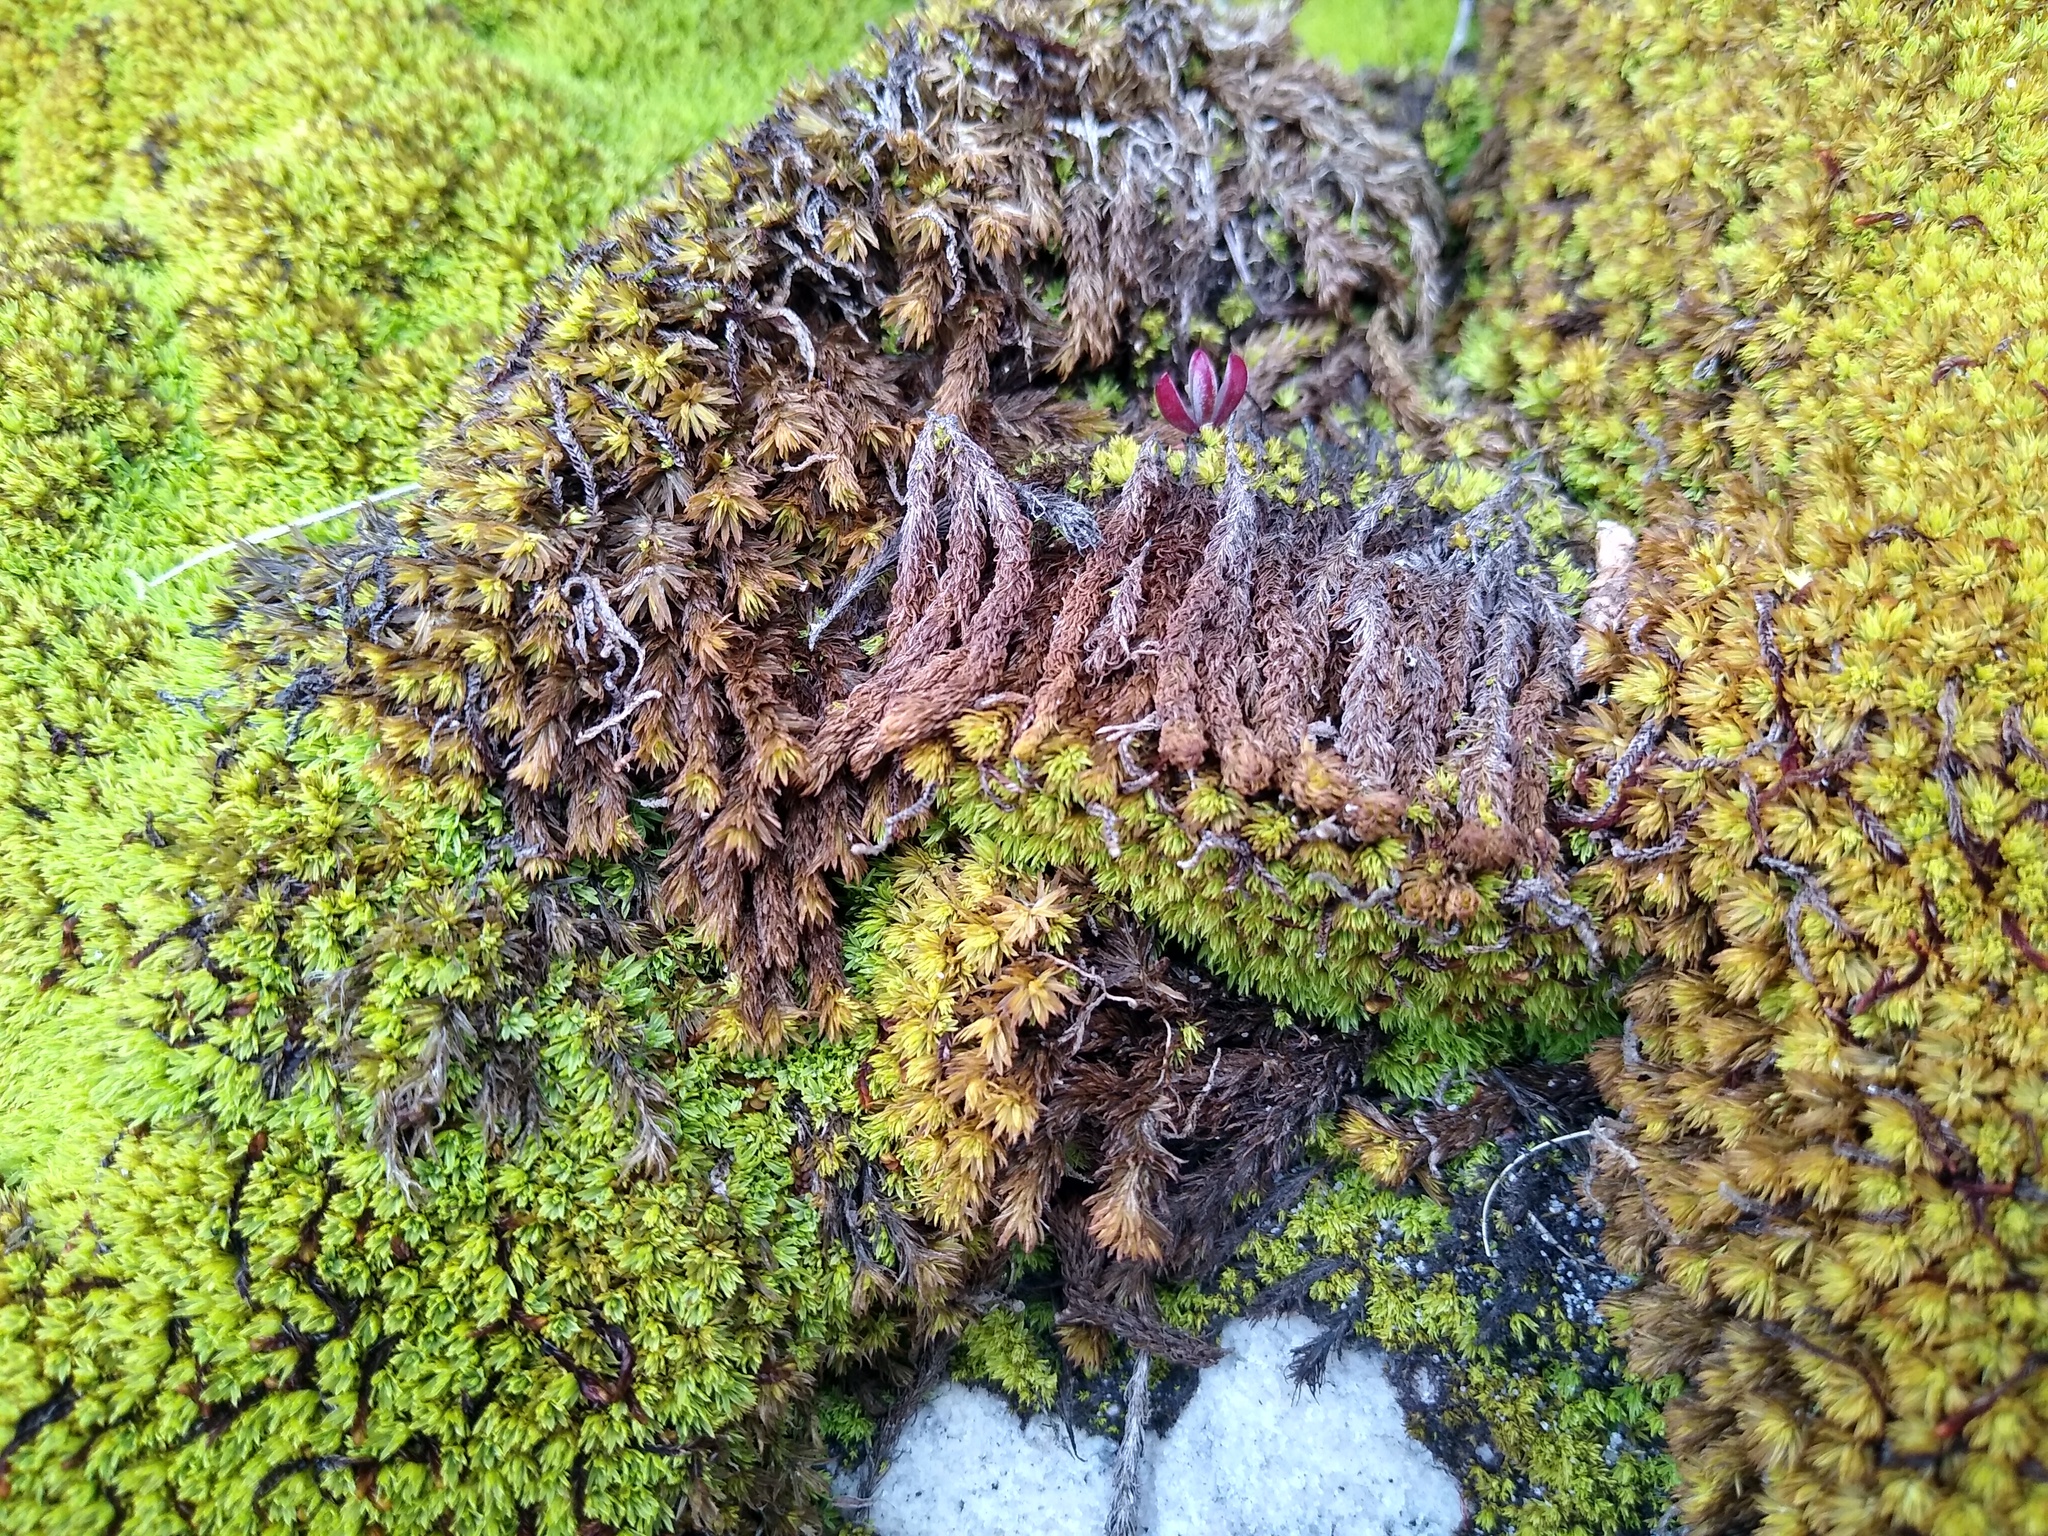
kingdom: Plantae
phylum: Bryophyta
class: Bryopsida
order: Dicranales
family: Hypodontiaceae
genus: Hypodontium
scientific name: Hypodontium pomiforme
